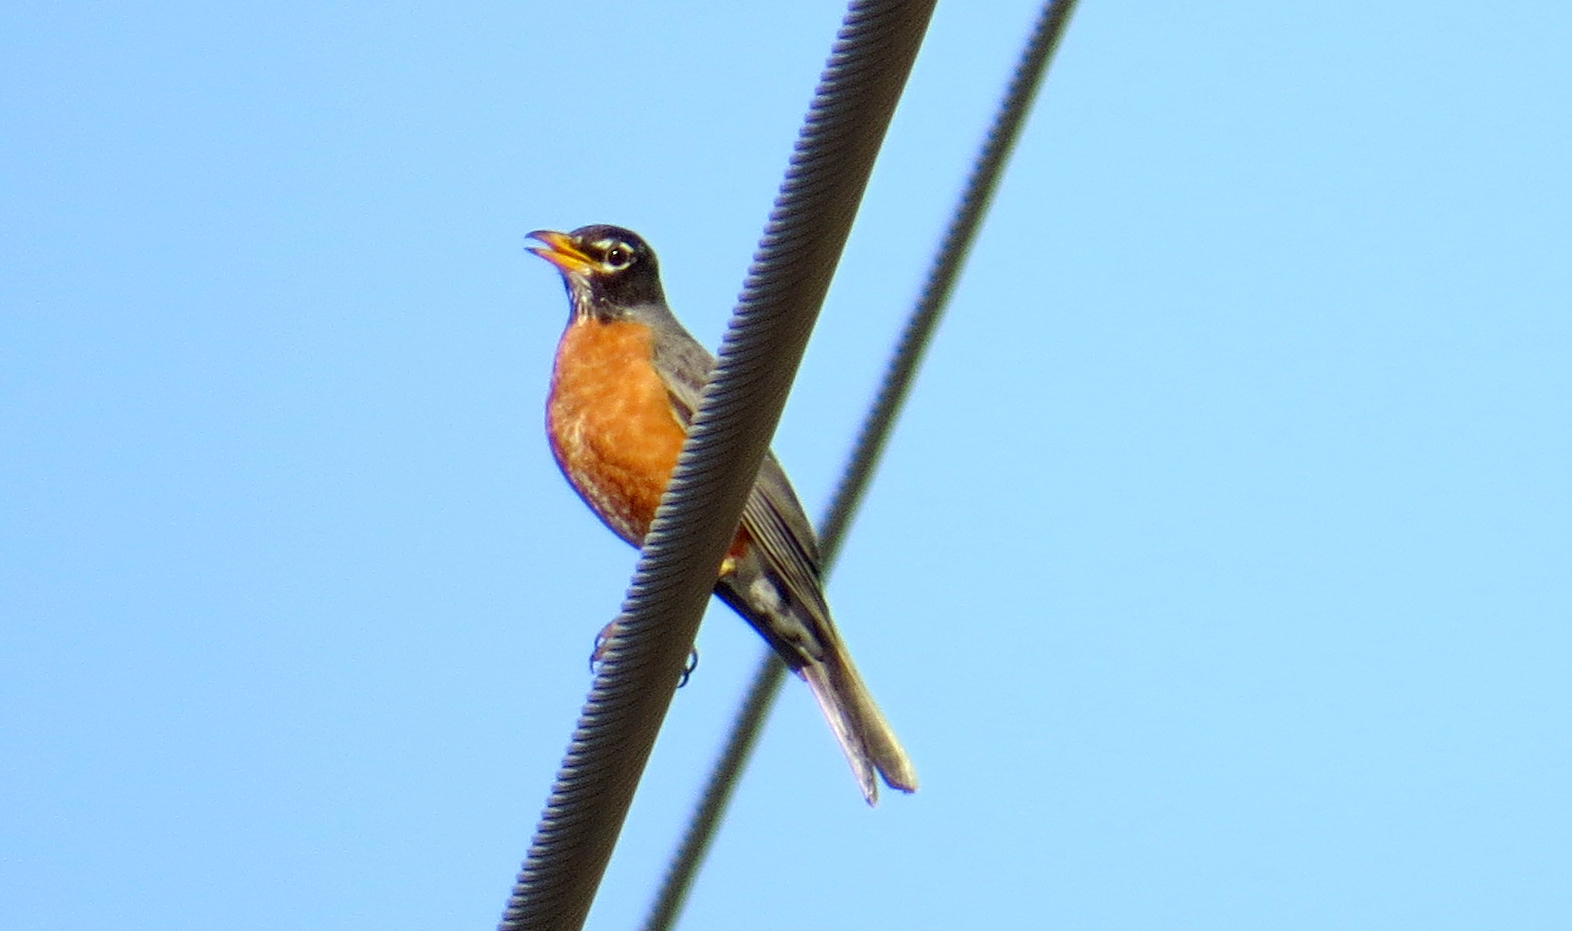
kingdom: Animalia
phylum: Chordata
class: Aves
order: Passeriformes
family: Turdidae
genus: Turdus
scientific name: Turdus migratorius
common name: American robin
